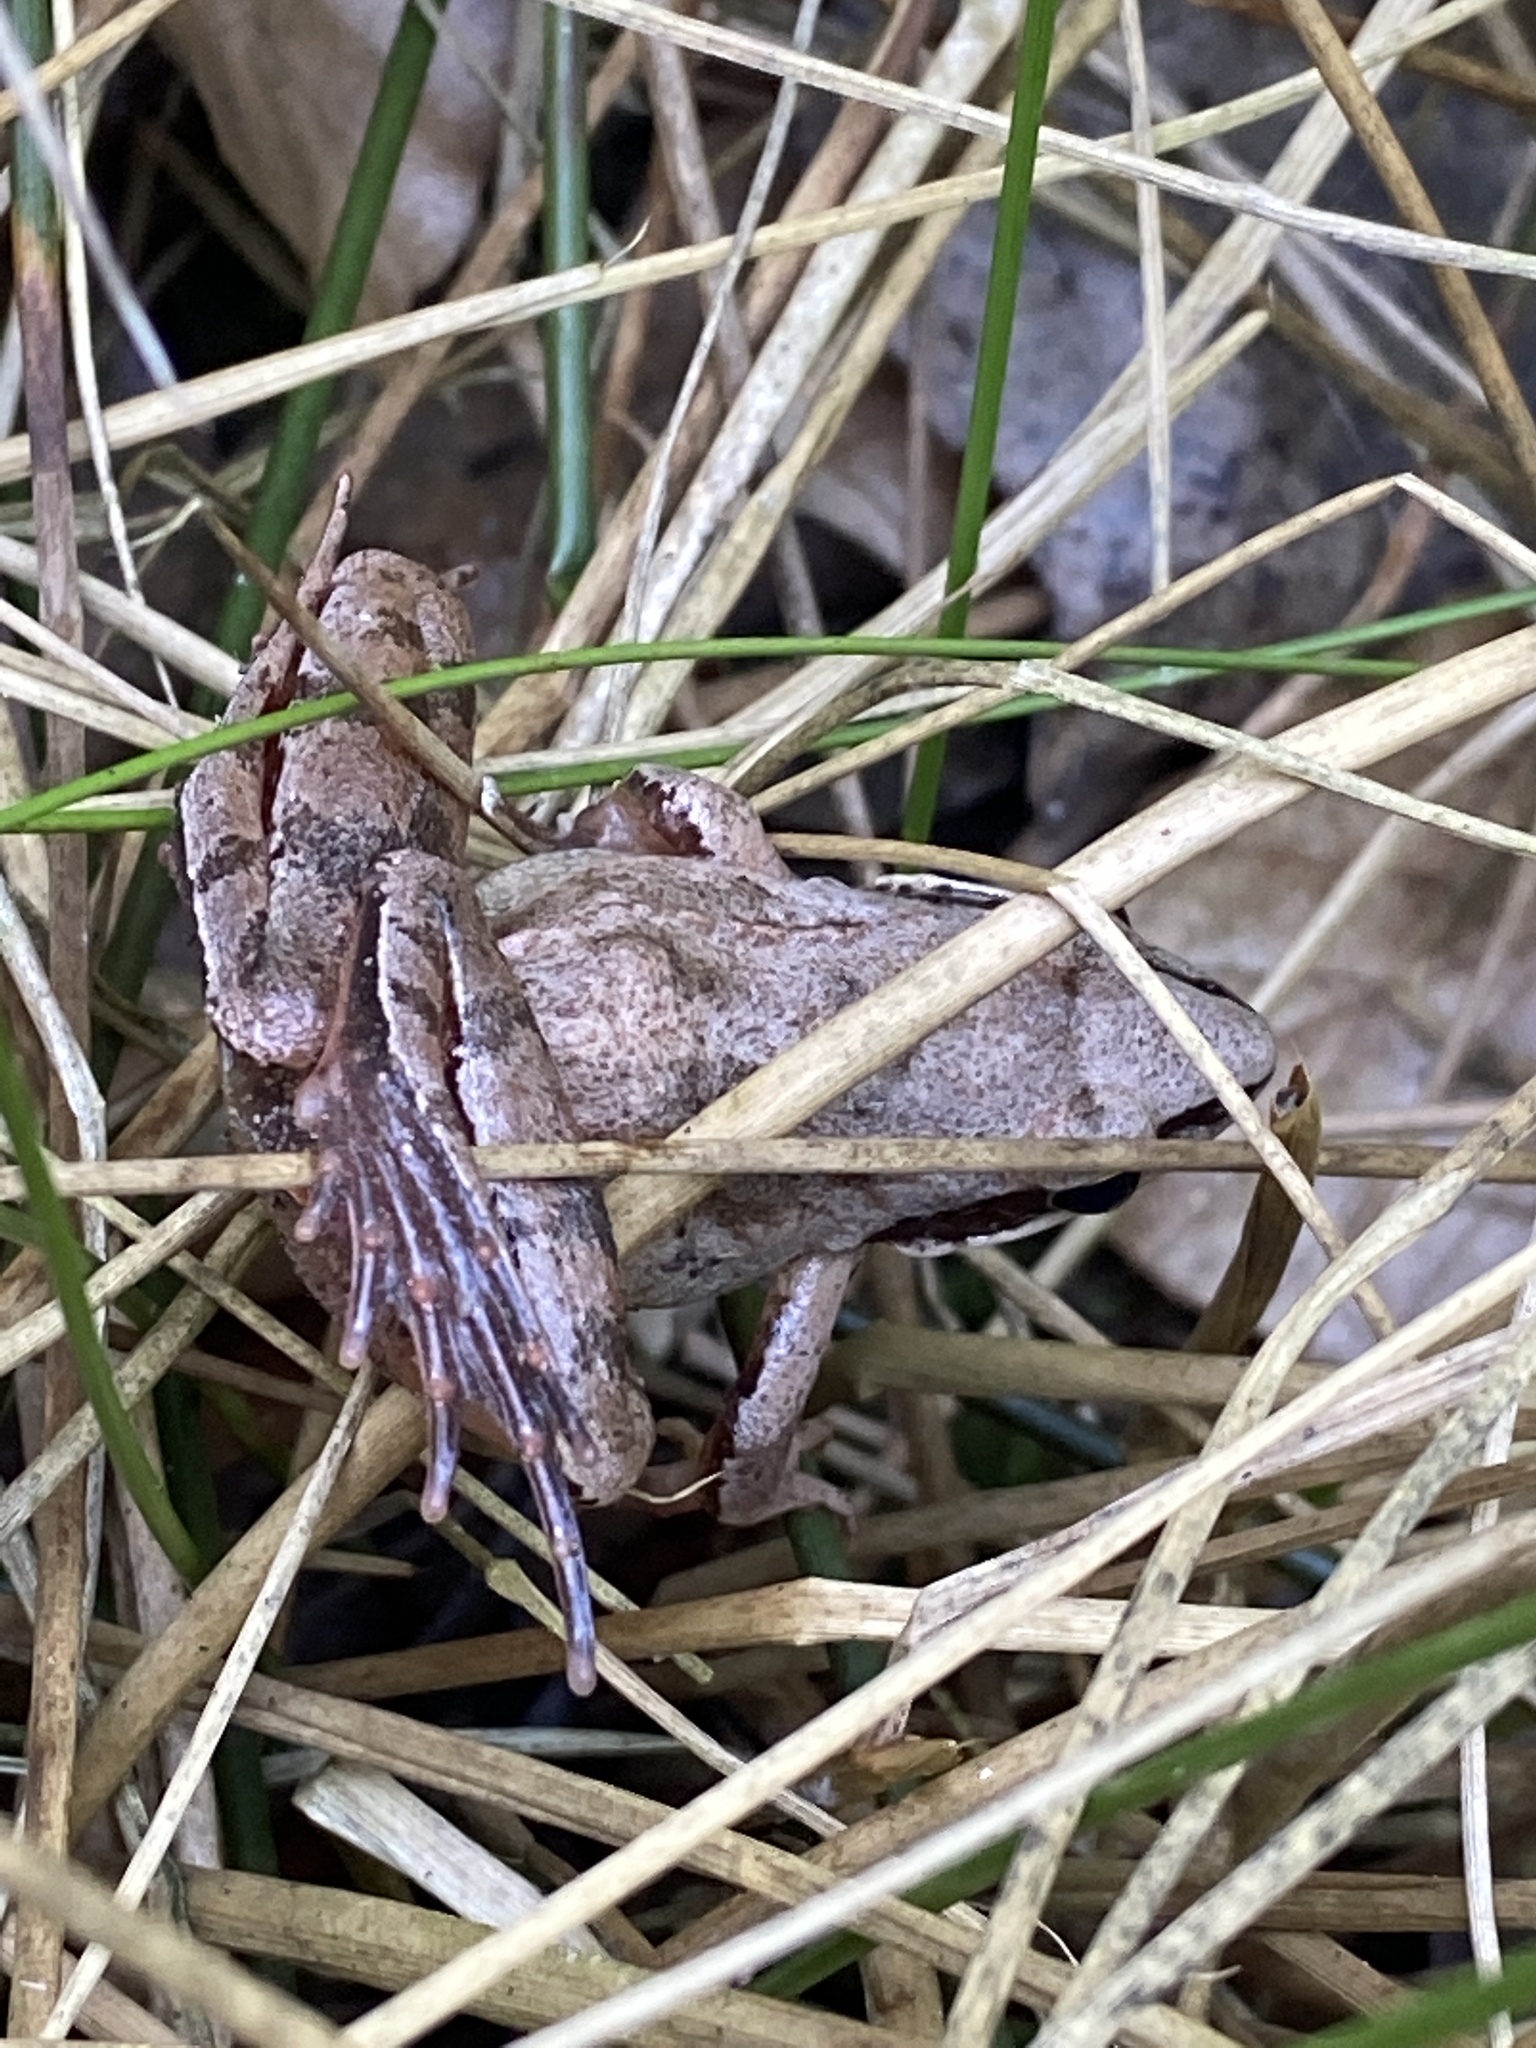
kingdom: Animalia
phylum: Chordata
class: Amphibia
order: Anura
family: Ranidae
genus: Rana
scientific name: Rana dalmatina
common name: Agile frog
